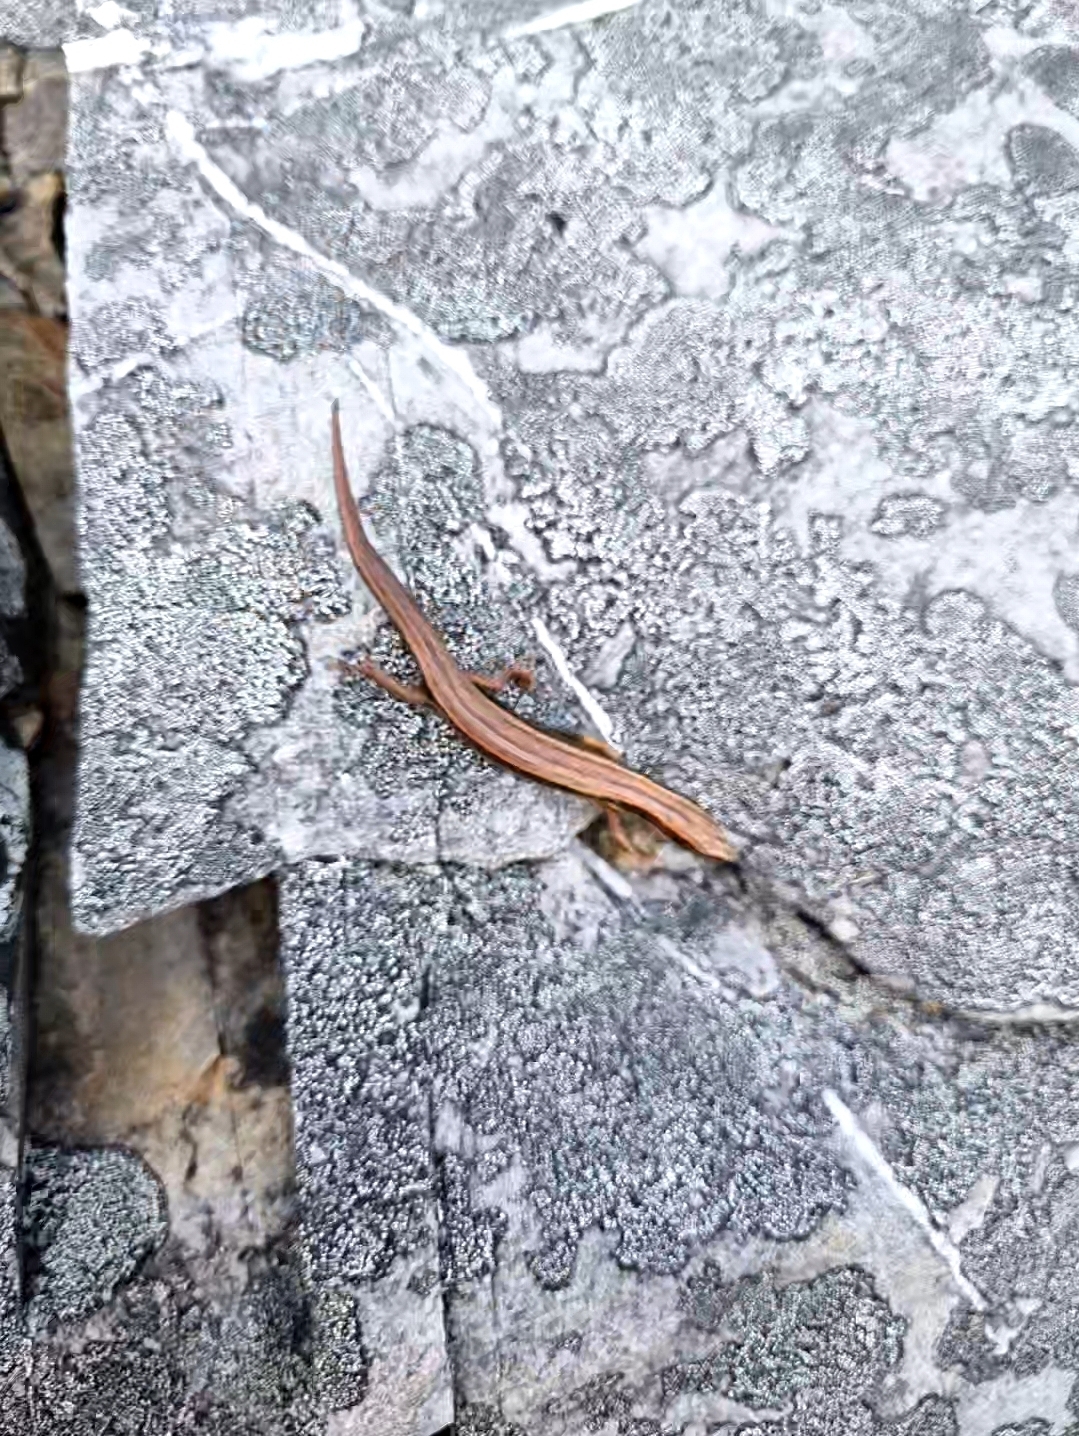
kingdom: Animalia
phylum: Chordata
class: Squamata
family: Scincidae
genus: Oligosoma
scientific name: Oligosoma newmani
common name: Newman’s speckled skink
